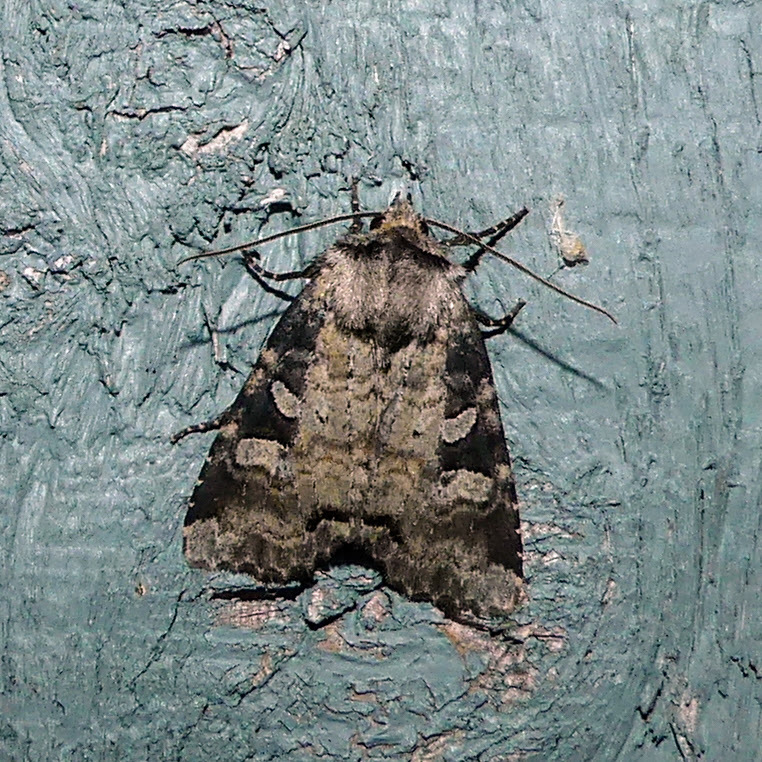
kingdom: Animalia
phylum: Arthropoda
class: Insecta
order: Lepidoptera
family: Noctuidae
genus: Hillia
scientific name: Hillia iris
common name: Iris rover moth
